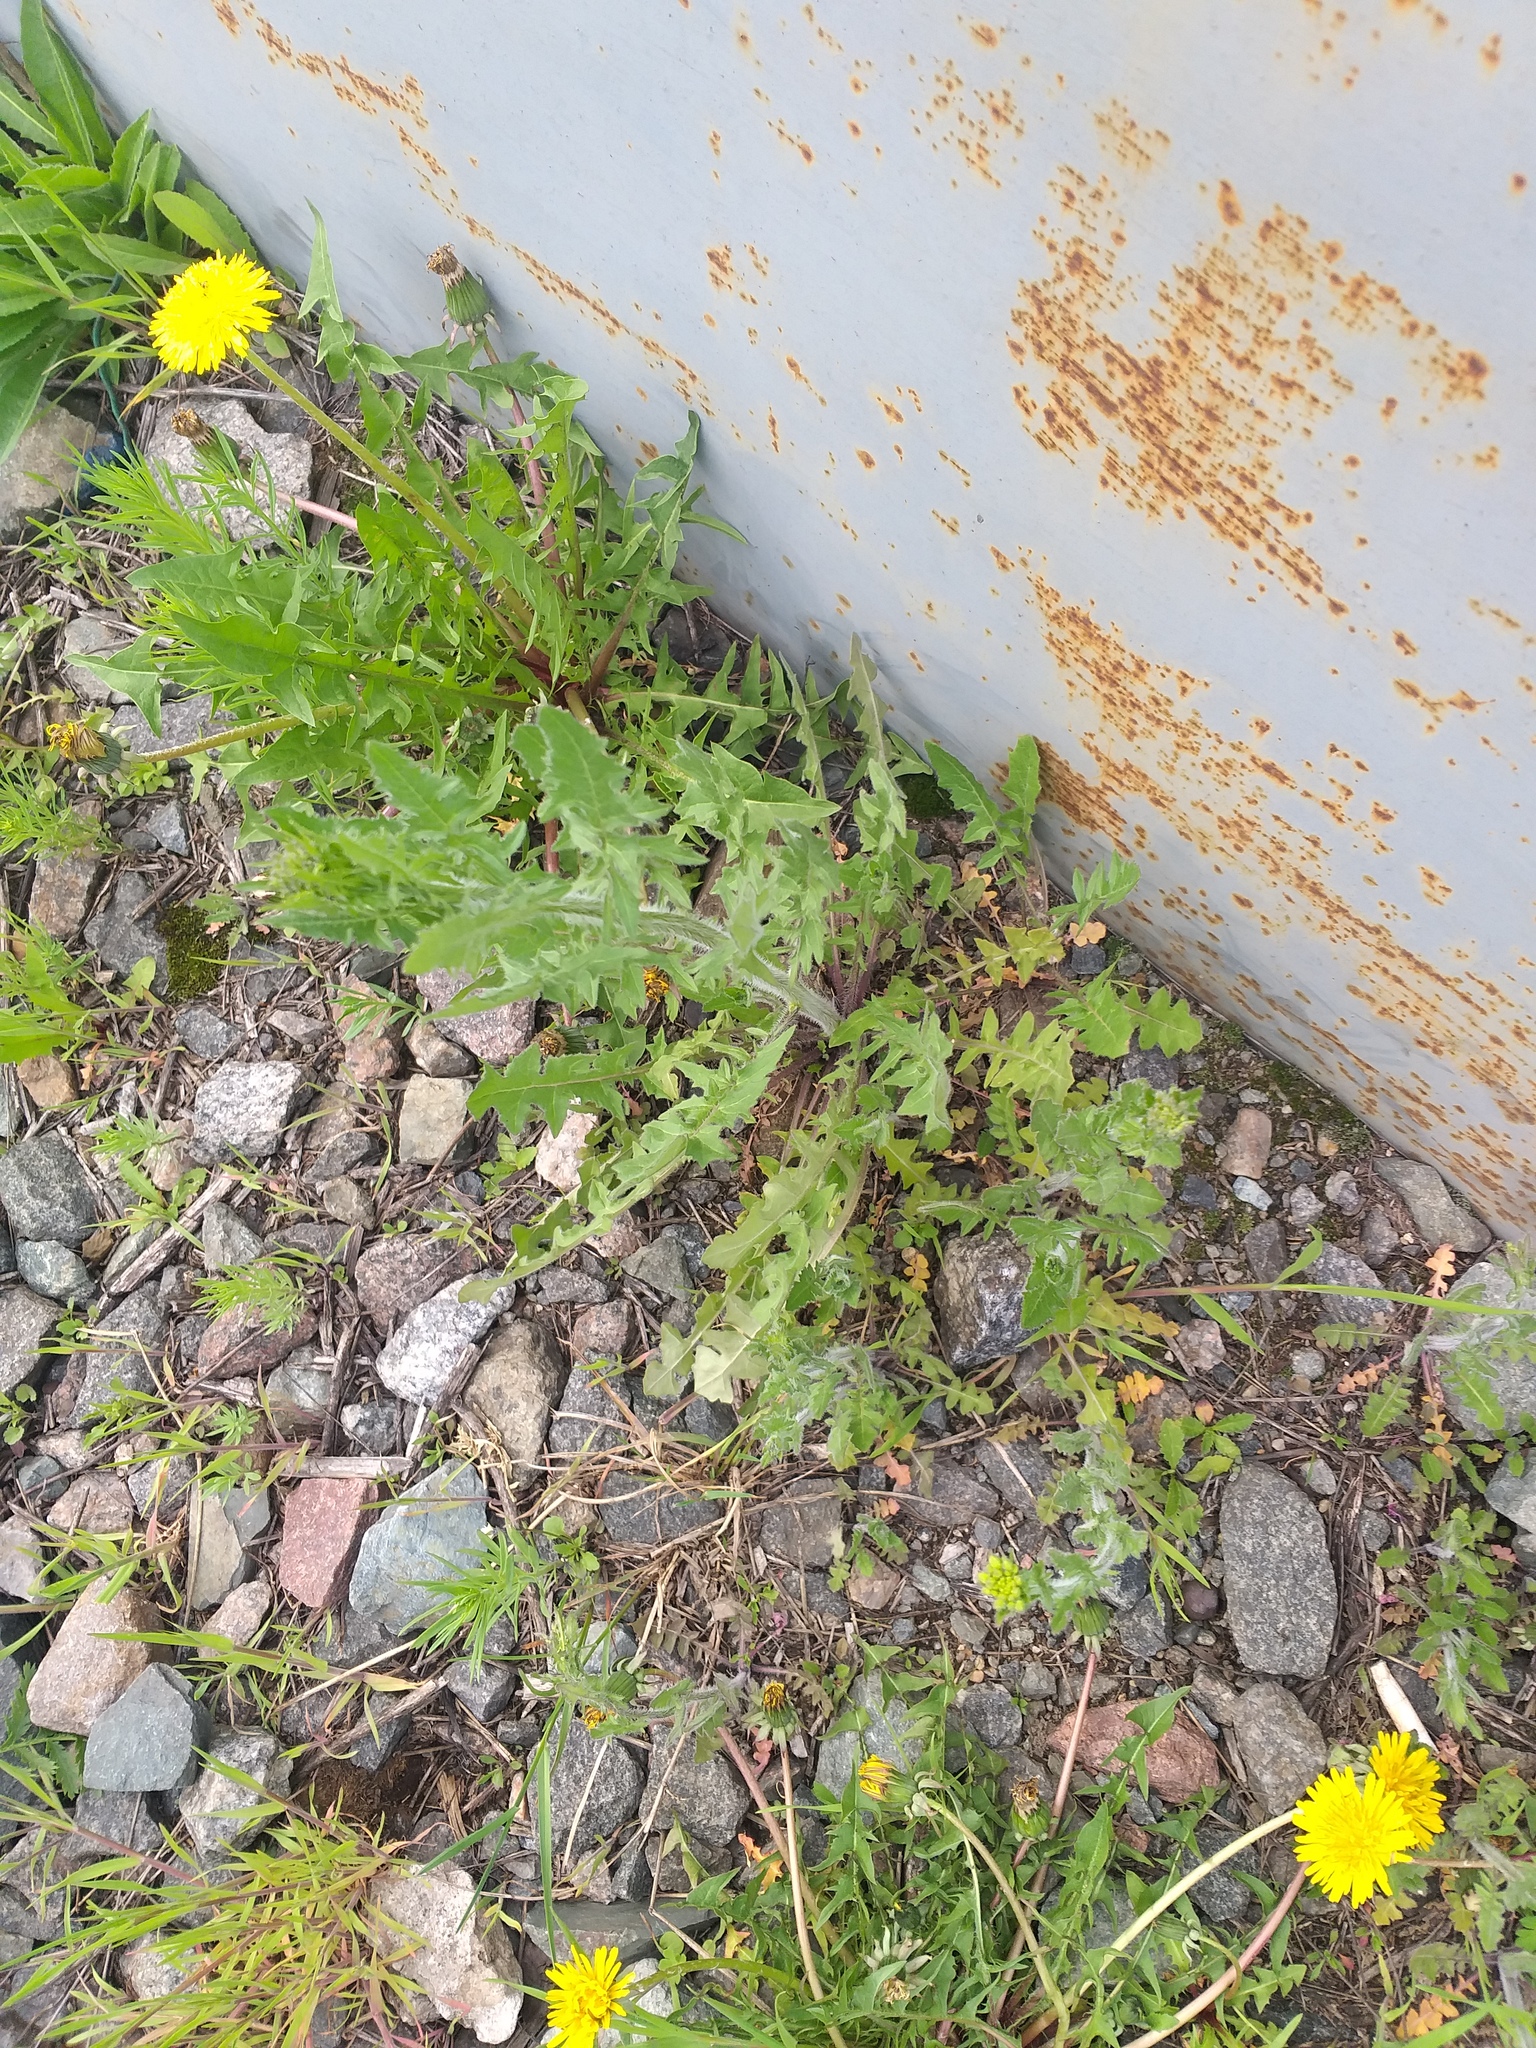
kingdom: Plantae
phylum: Tracheophyta
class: Magnoliopsida
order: Brassicales
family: Brassicaceae
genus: Sisymbrium
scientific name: Sisymbrium loeselii
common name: False london-rocket
